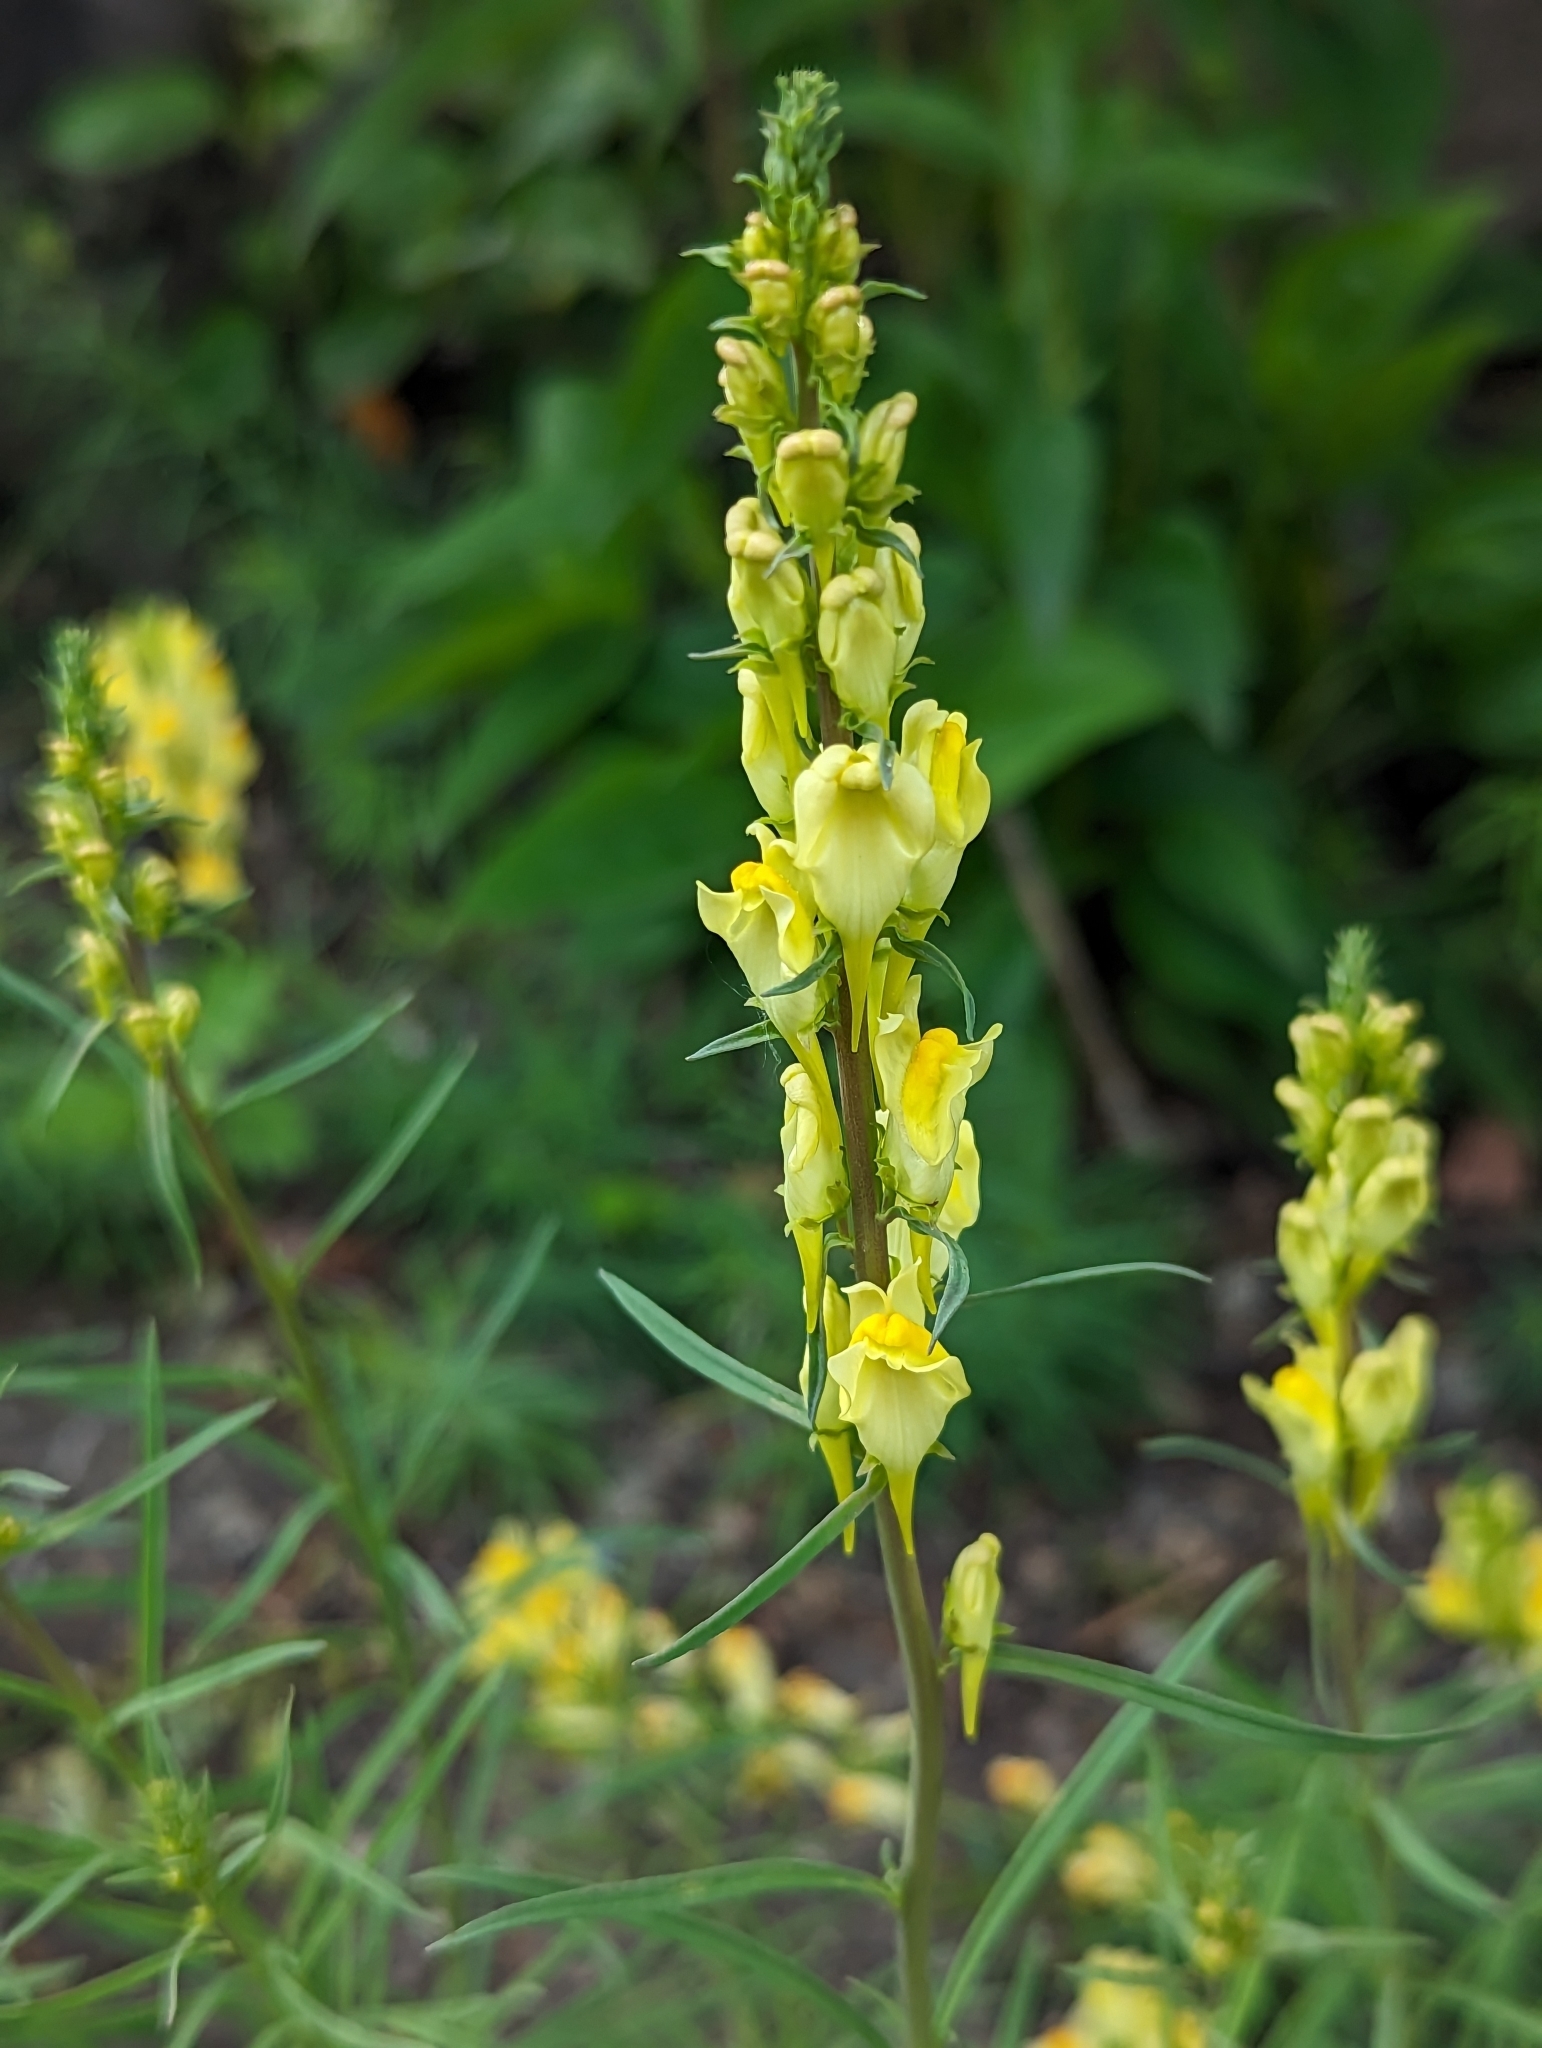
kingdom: Plantae
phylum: Tracheophyta
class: Magnoliopsida
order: Lamiales
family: Plantaginaceae
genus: Linaria
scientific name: Linaria vulgaris
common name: Butter and eggs
